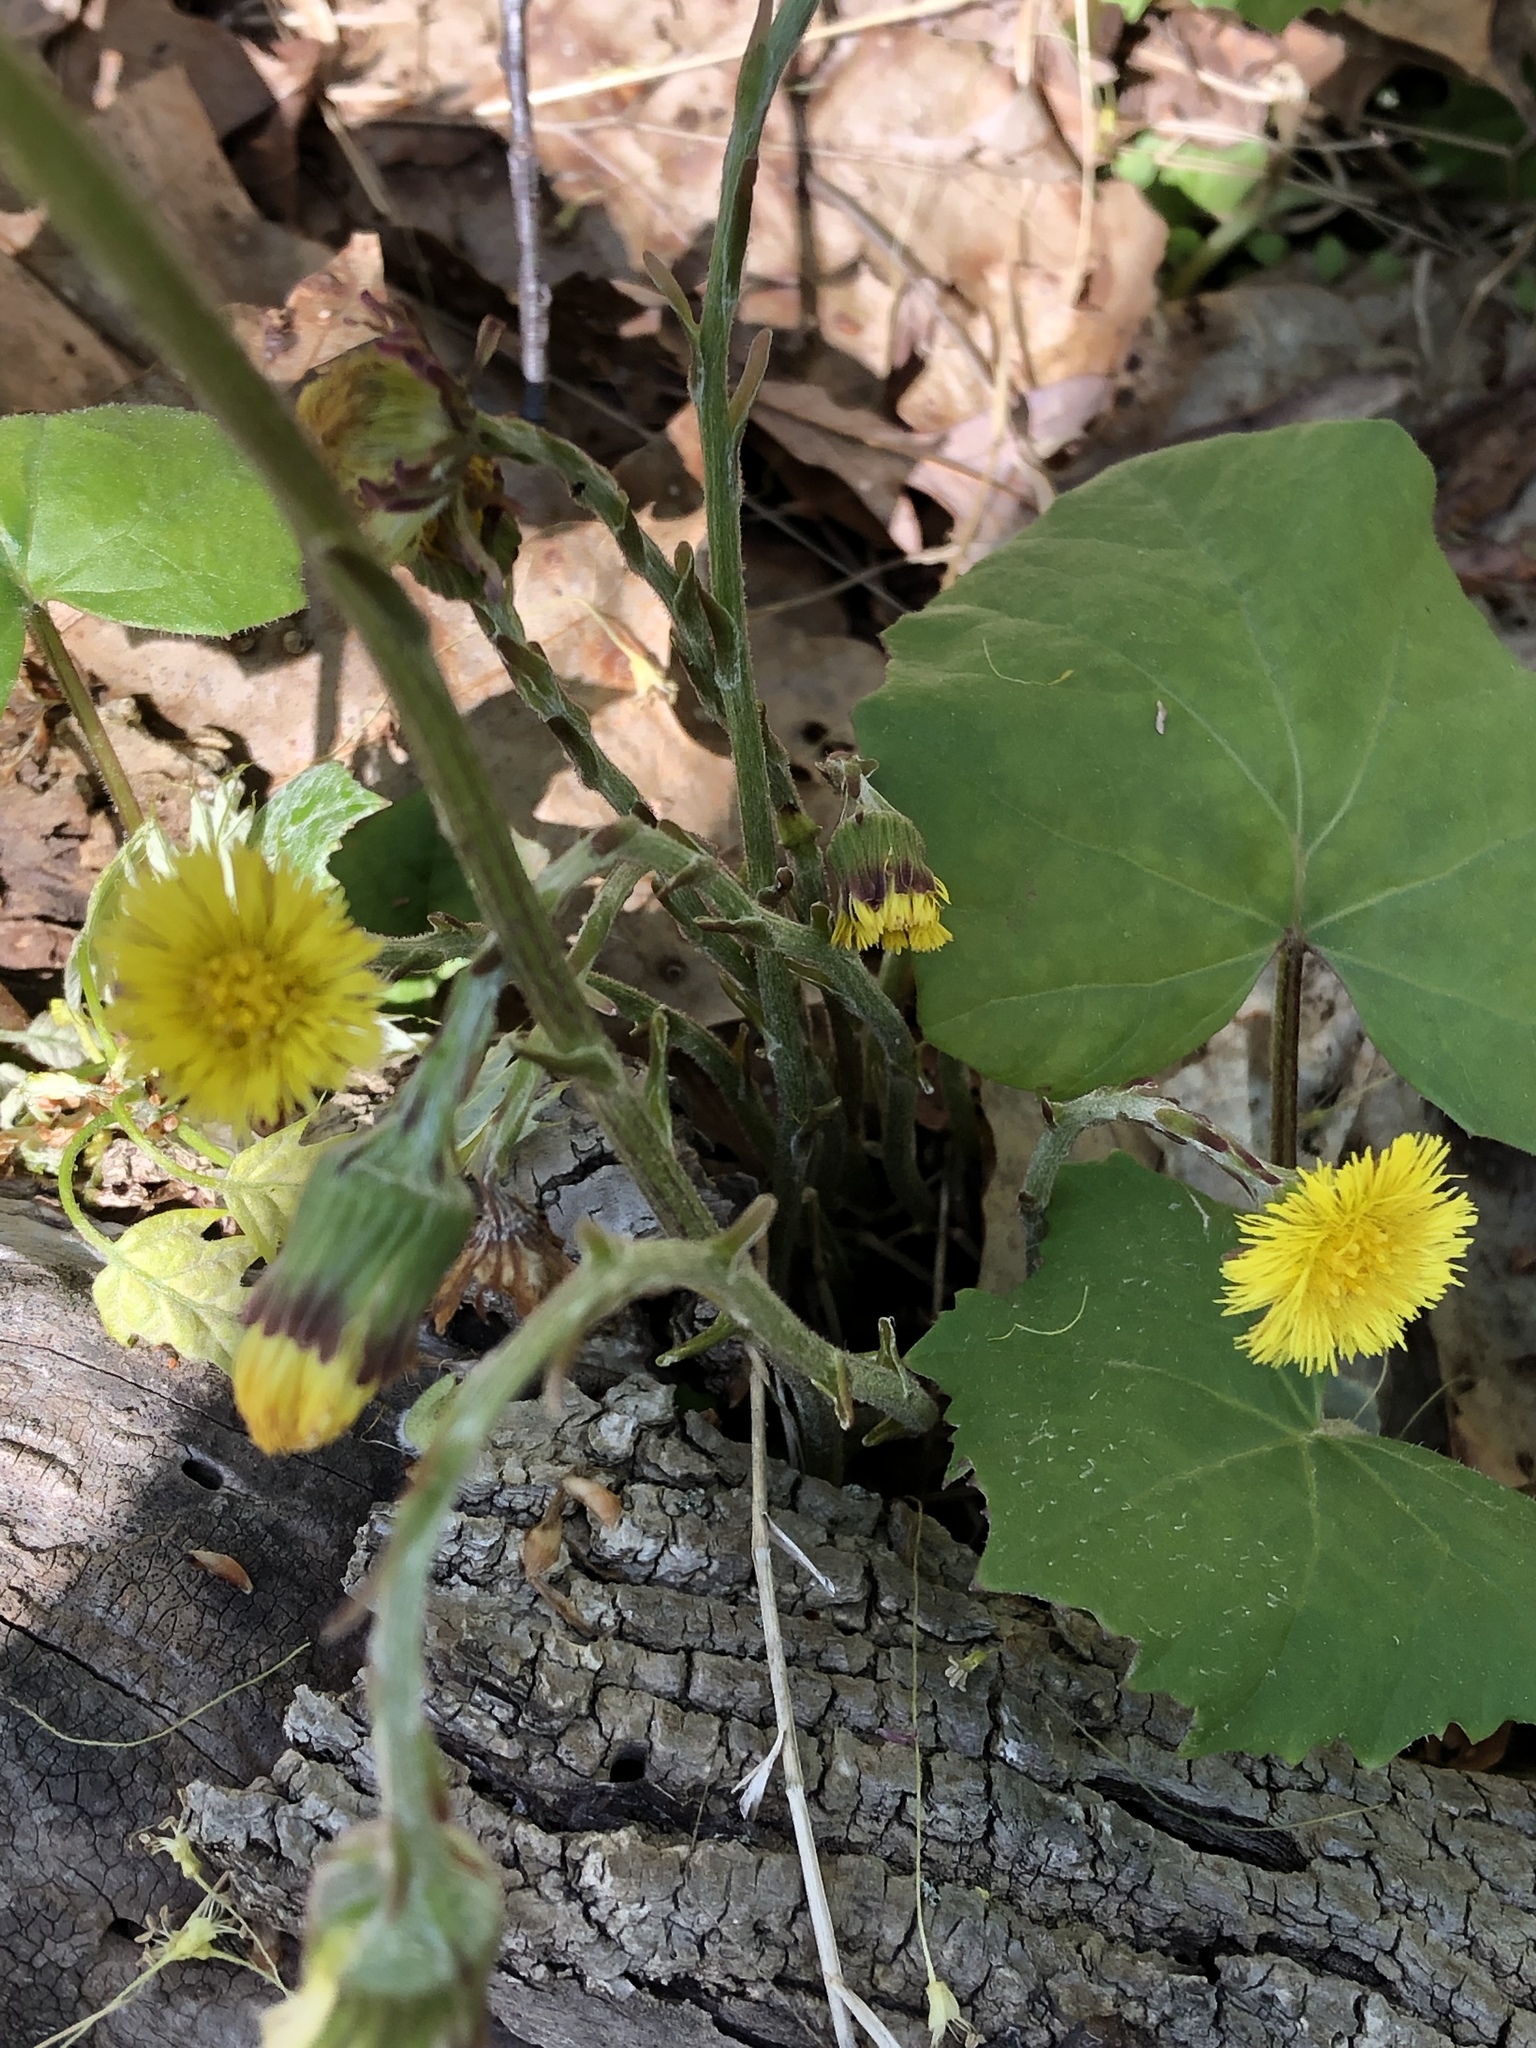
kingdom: Plantae
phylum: Tracheophyta
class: Magnoliopsida
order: Asterales
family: Asteraceae
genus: Tussilago
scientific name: Tussilago farfara
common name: Coltsfoot
